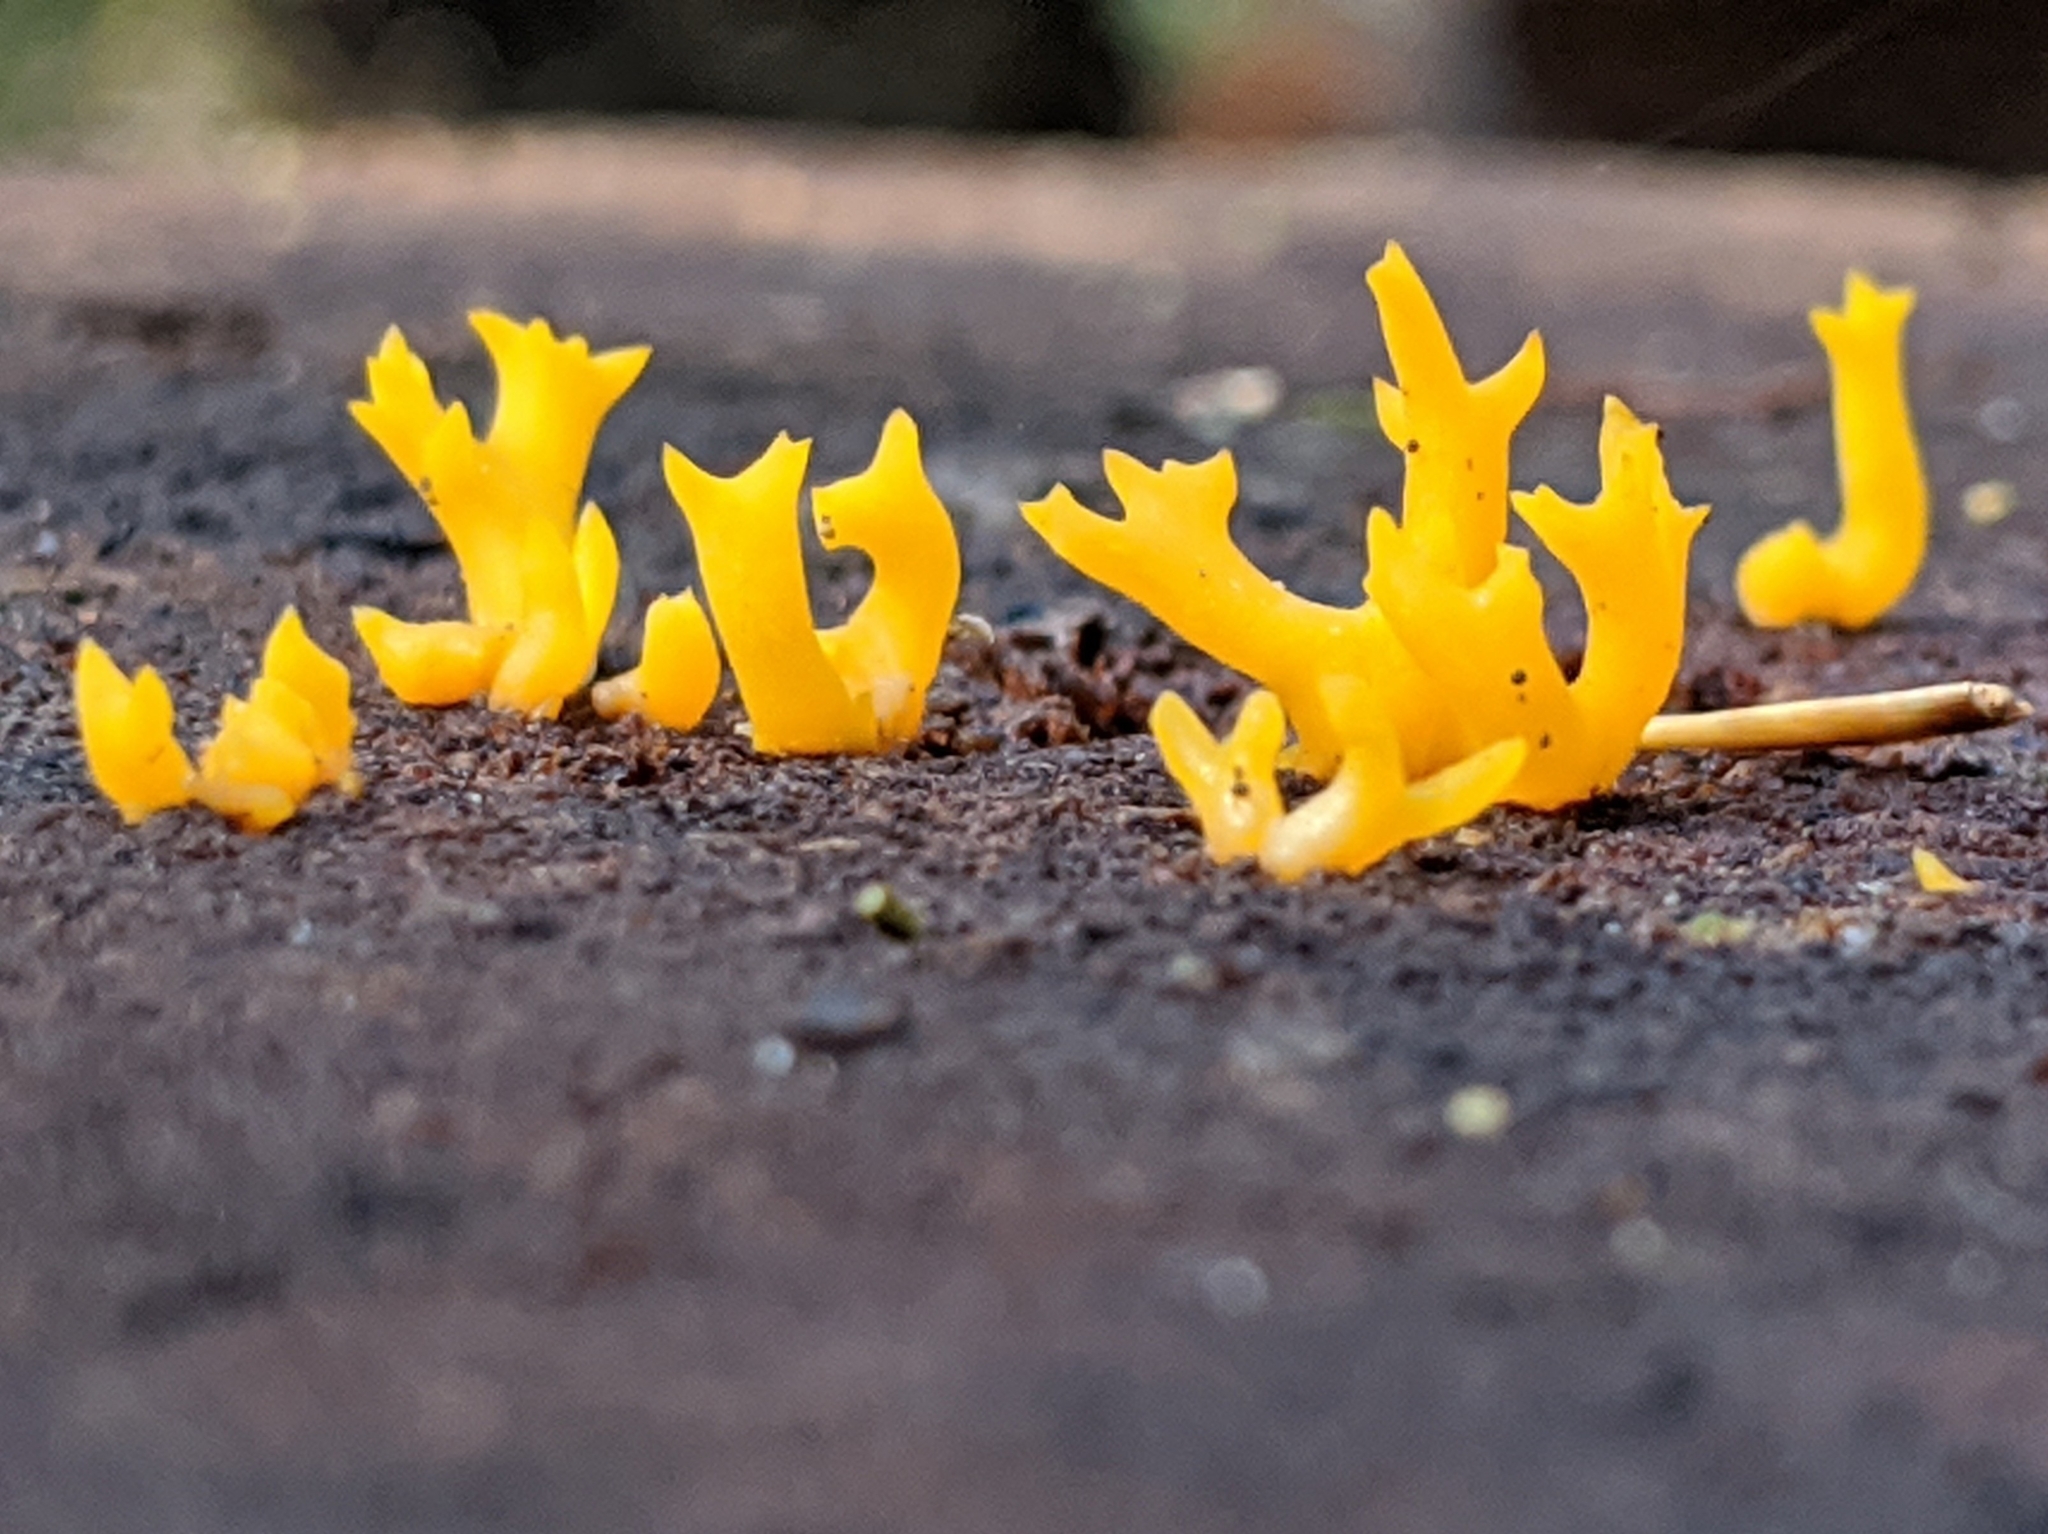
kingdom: Fungi
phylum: Basidiomycota
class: Dacrymycetes
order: Dacrymycetales
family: Dacrymycetaceae
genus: Calocera
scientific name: Calocera cornea
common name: Small stagshorn
